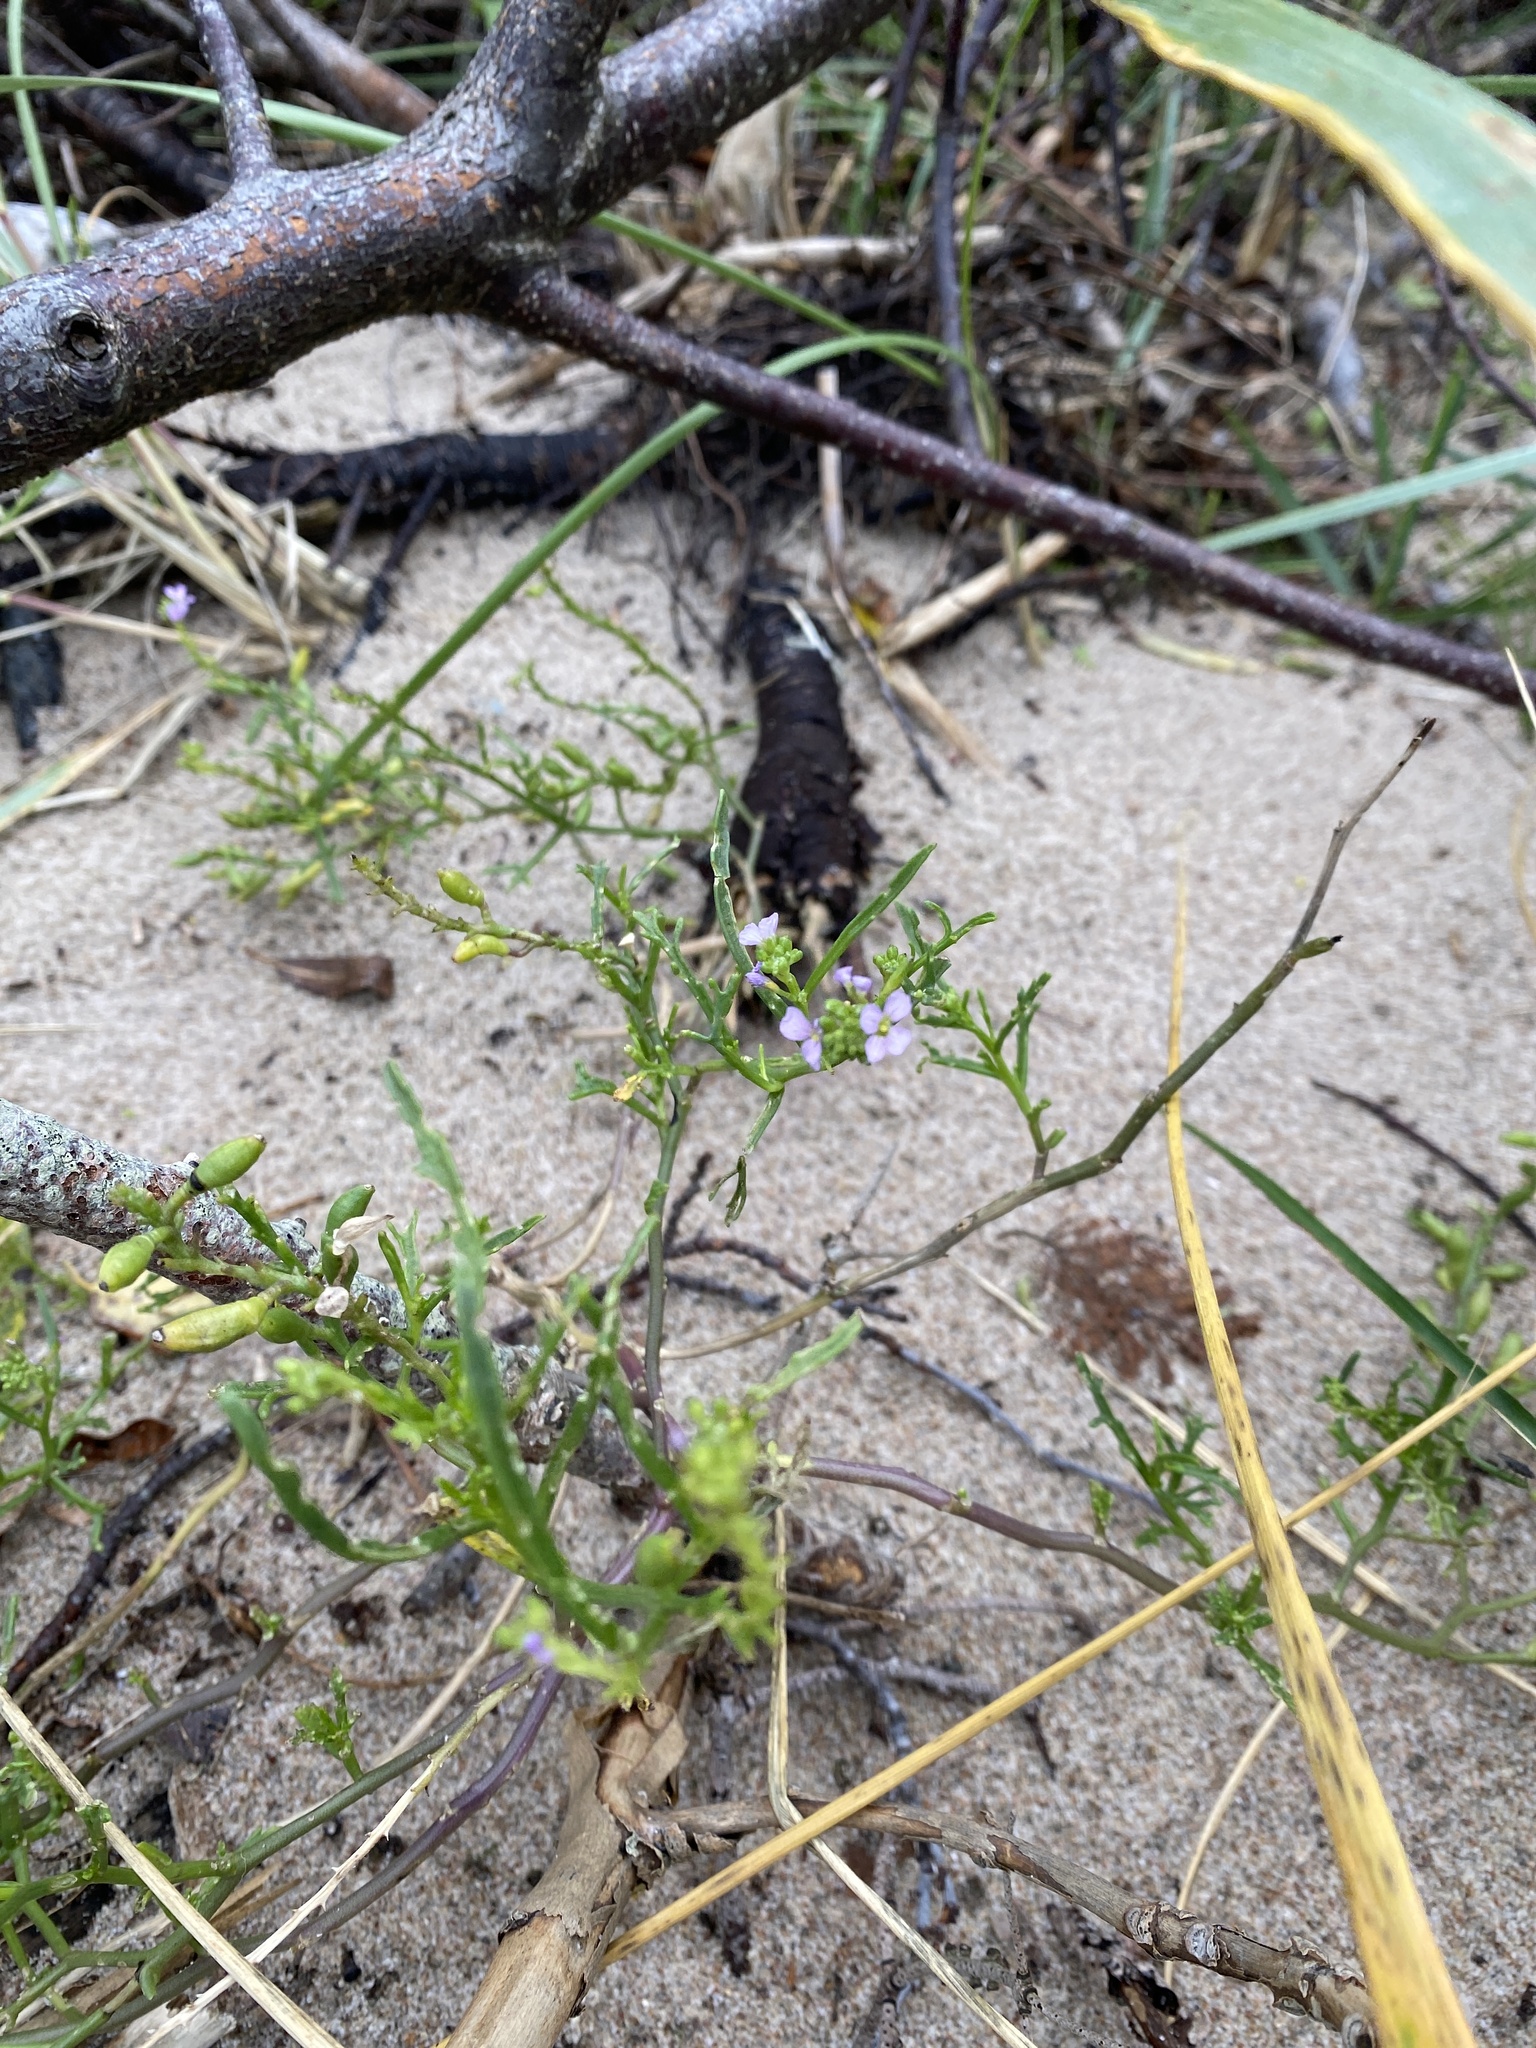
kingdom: Plantae
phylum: Tracheophyta
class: Magnoliopsida
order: Brassicales
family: Brassicaceae
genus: Cakile
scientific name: Cakile maritima
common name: Sea rocket
